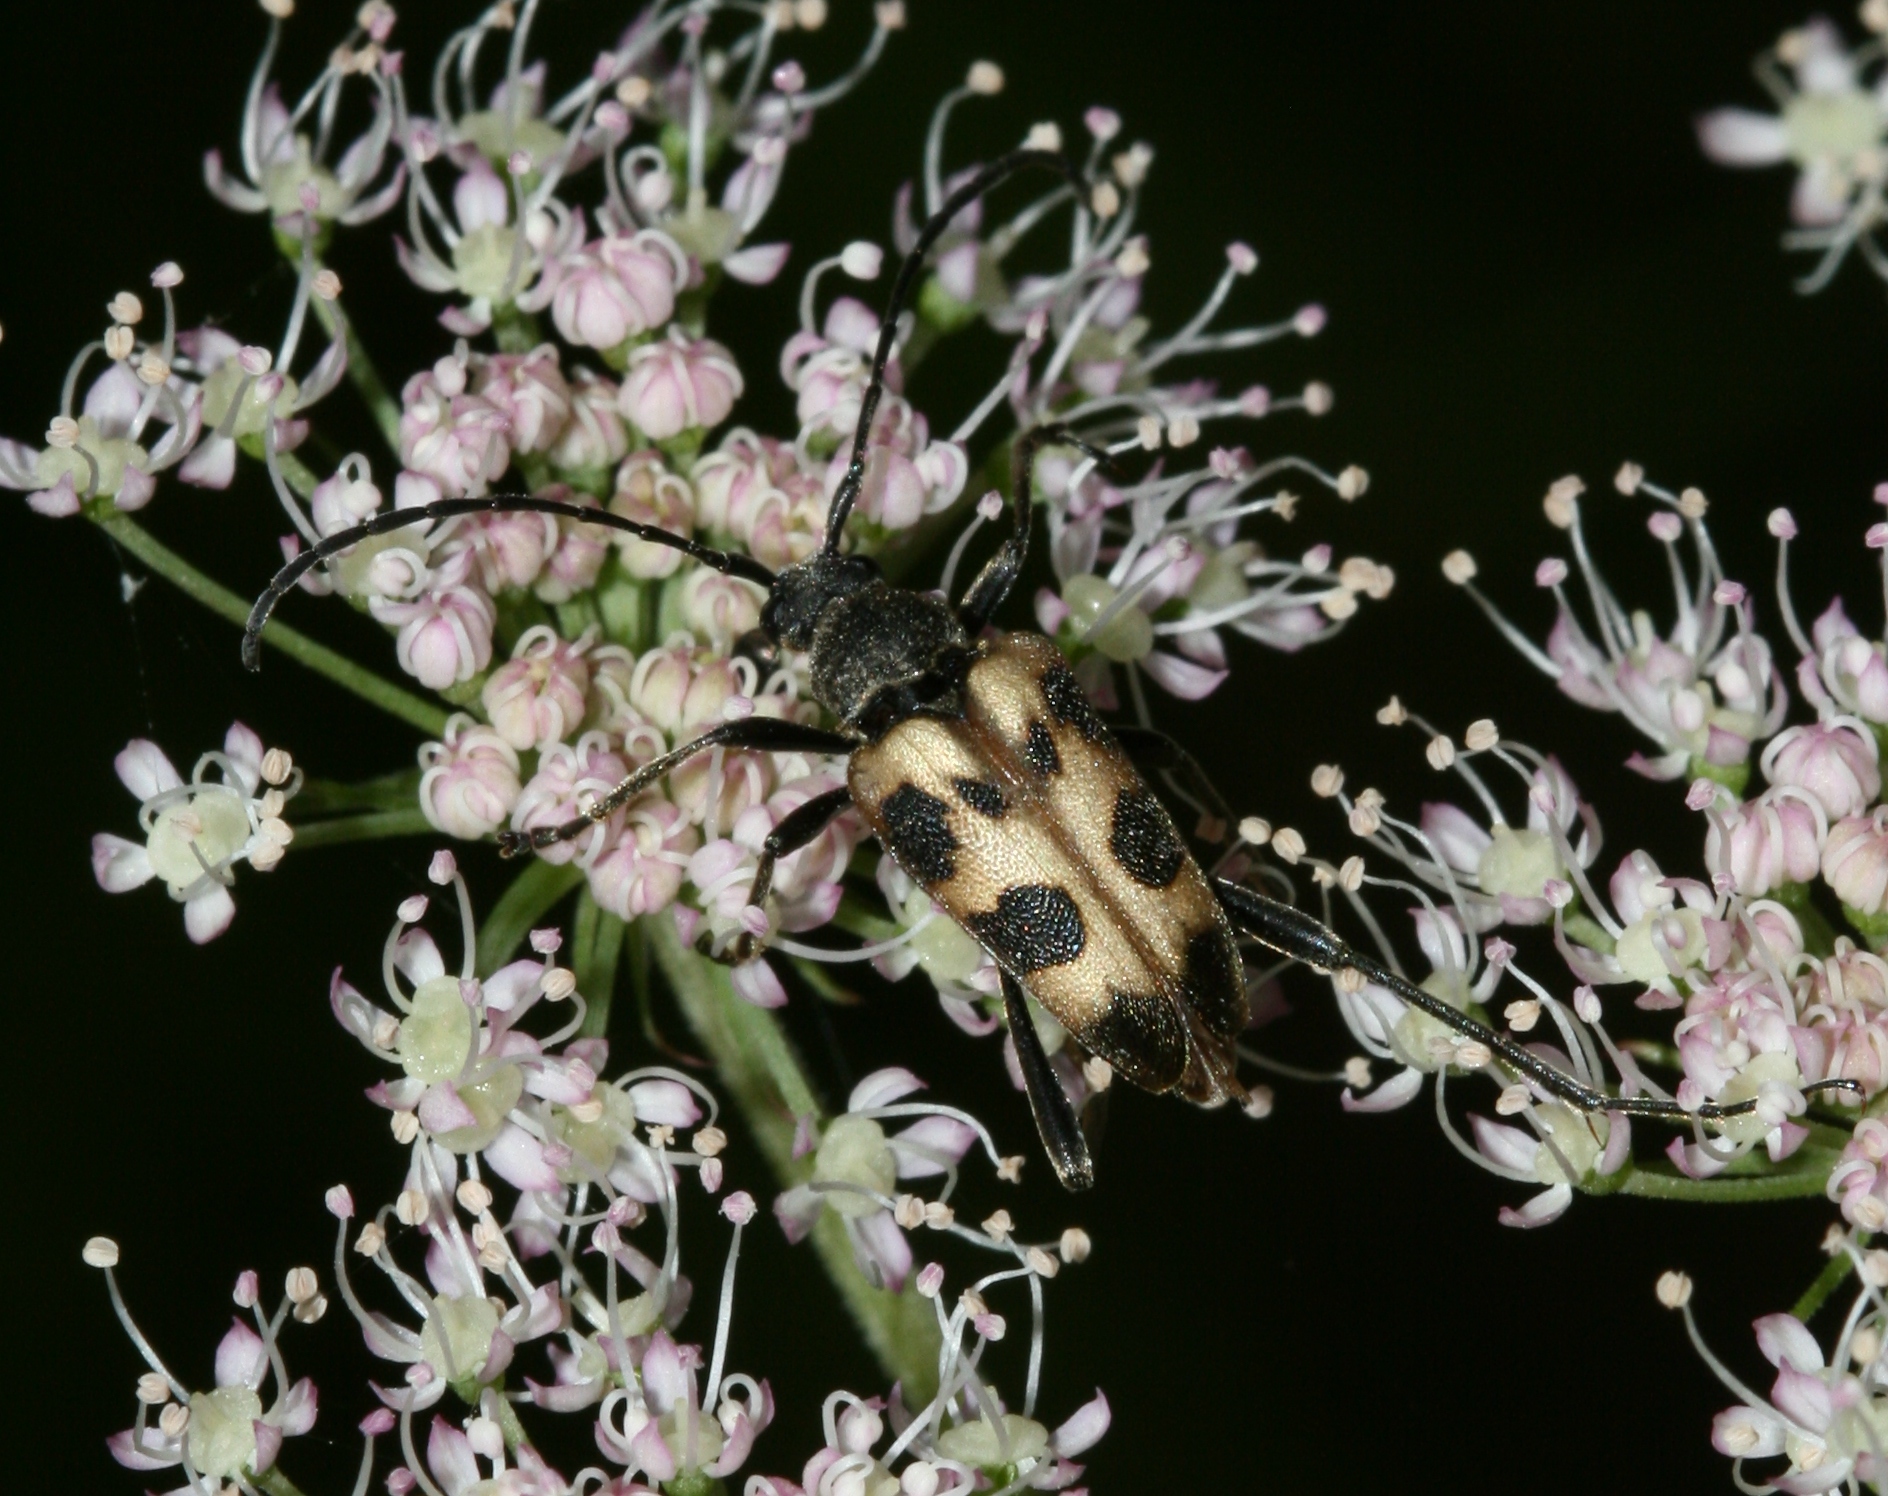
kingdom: Animalia
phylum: Arthropoda
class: Insecta
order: Coleoptera
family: Cerambycidae
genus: Pachytodes
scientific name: Pachytodes cerambyciformis
